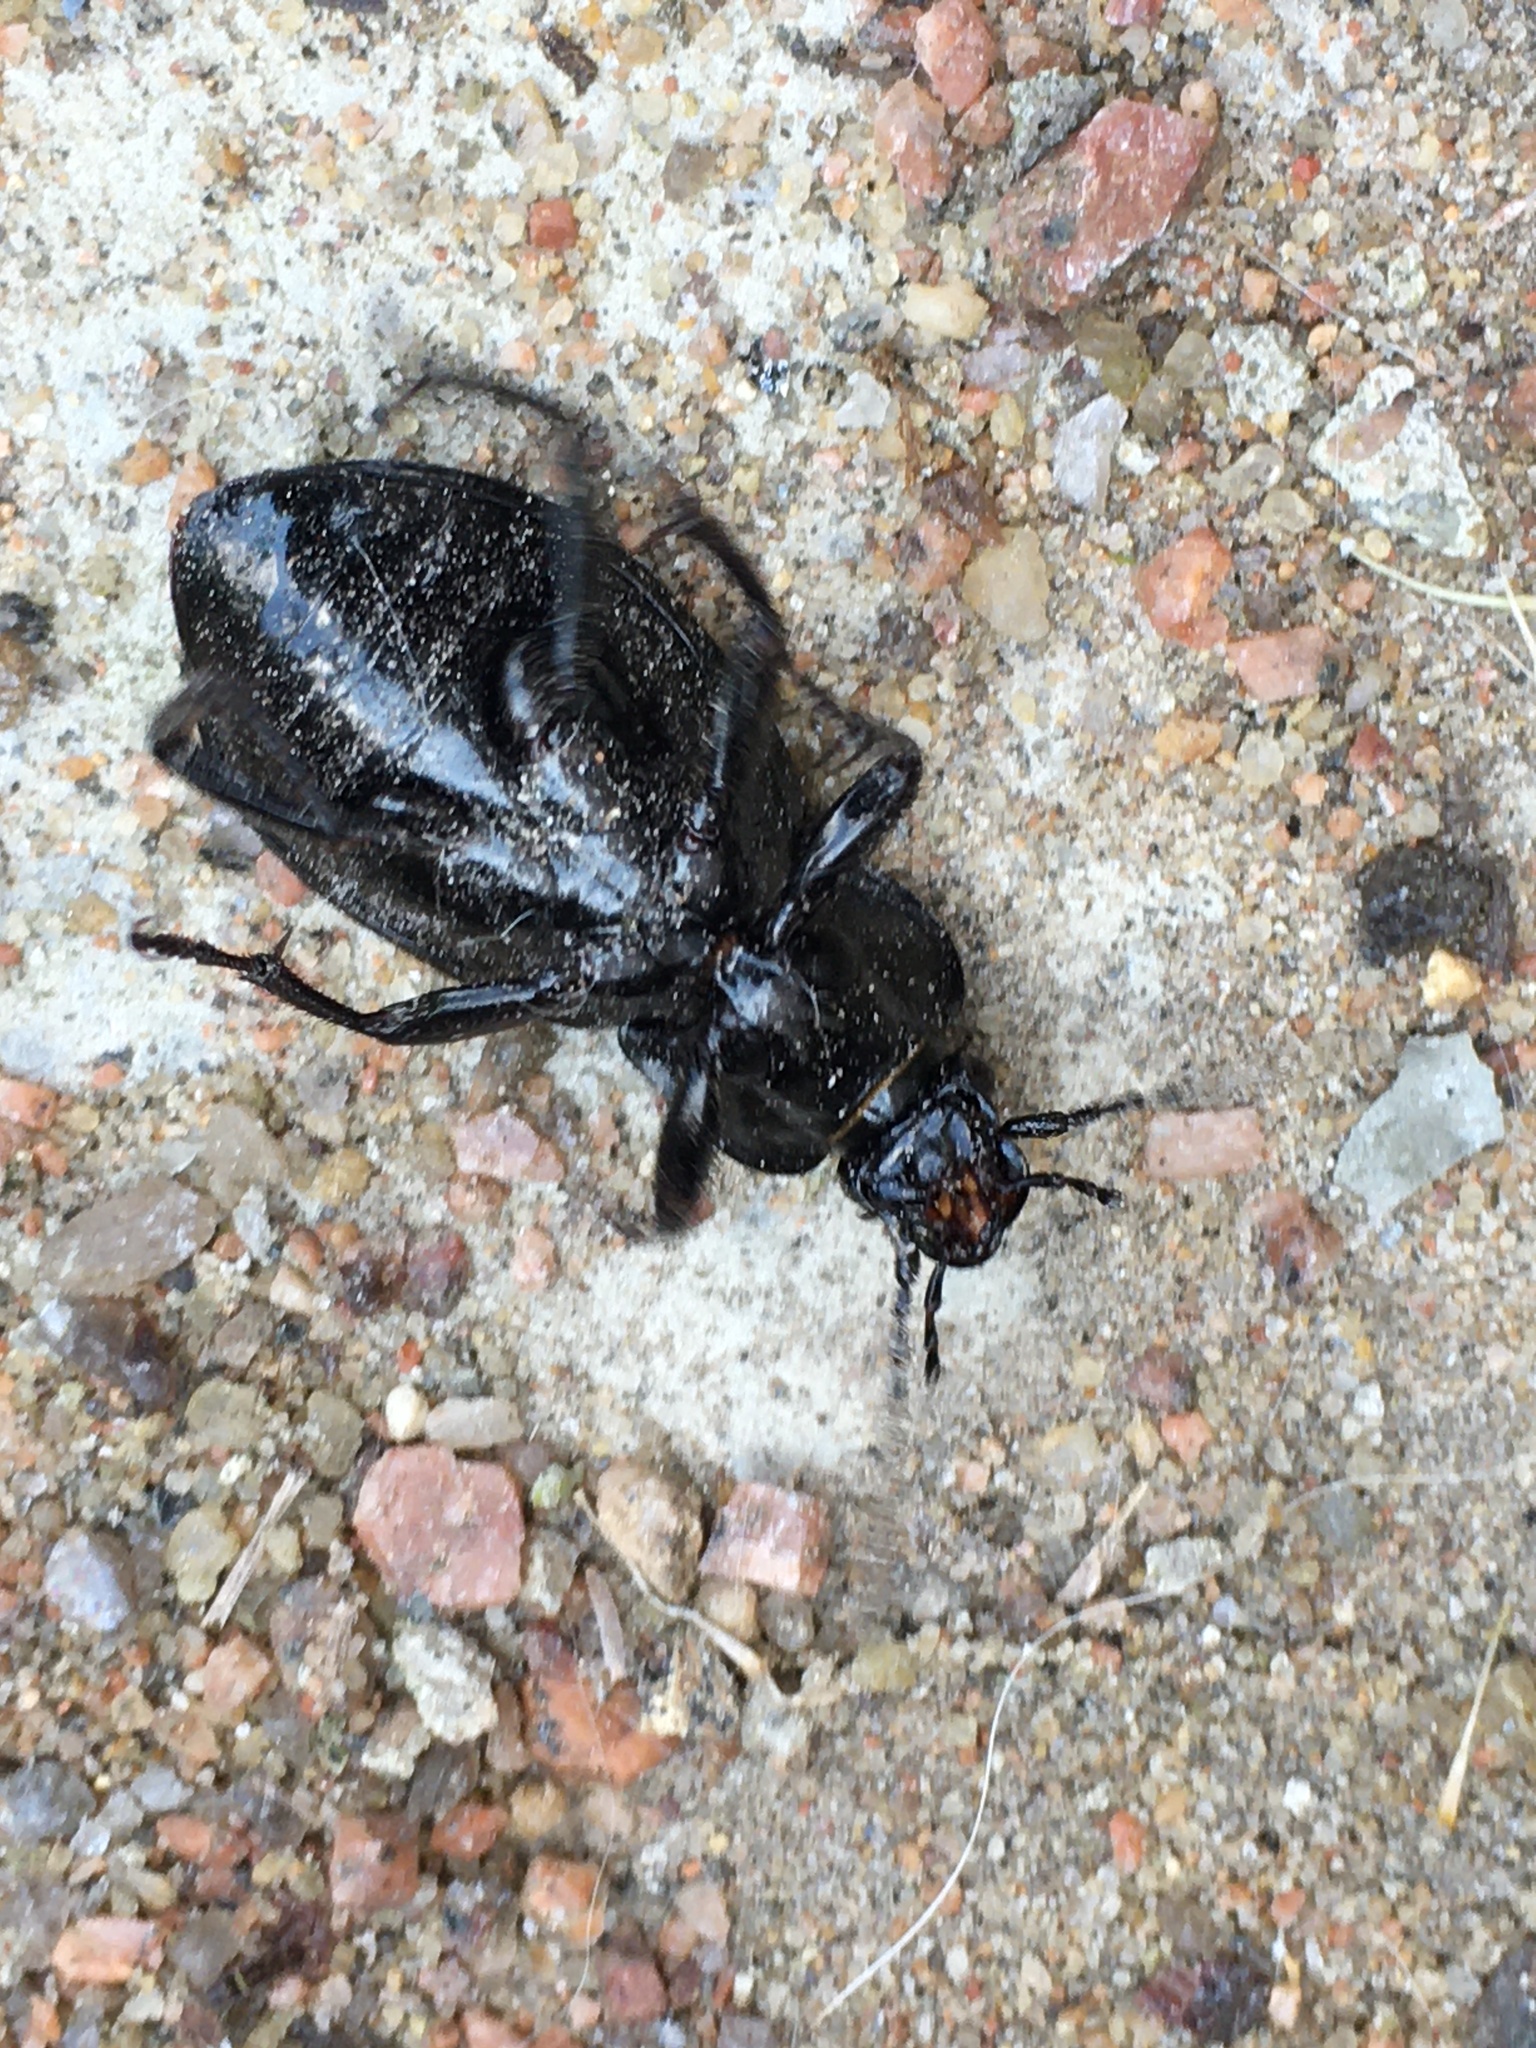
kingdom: Animalia
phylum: Arthropoda
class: Insecta
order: Coleoptera
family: Carabidae
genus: Carabus
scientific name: Carabus nemoralis
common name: European ground beetle
